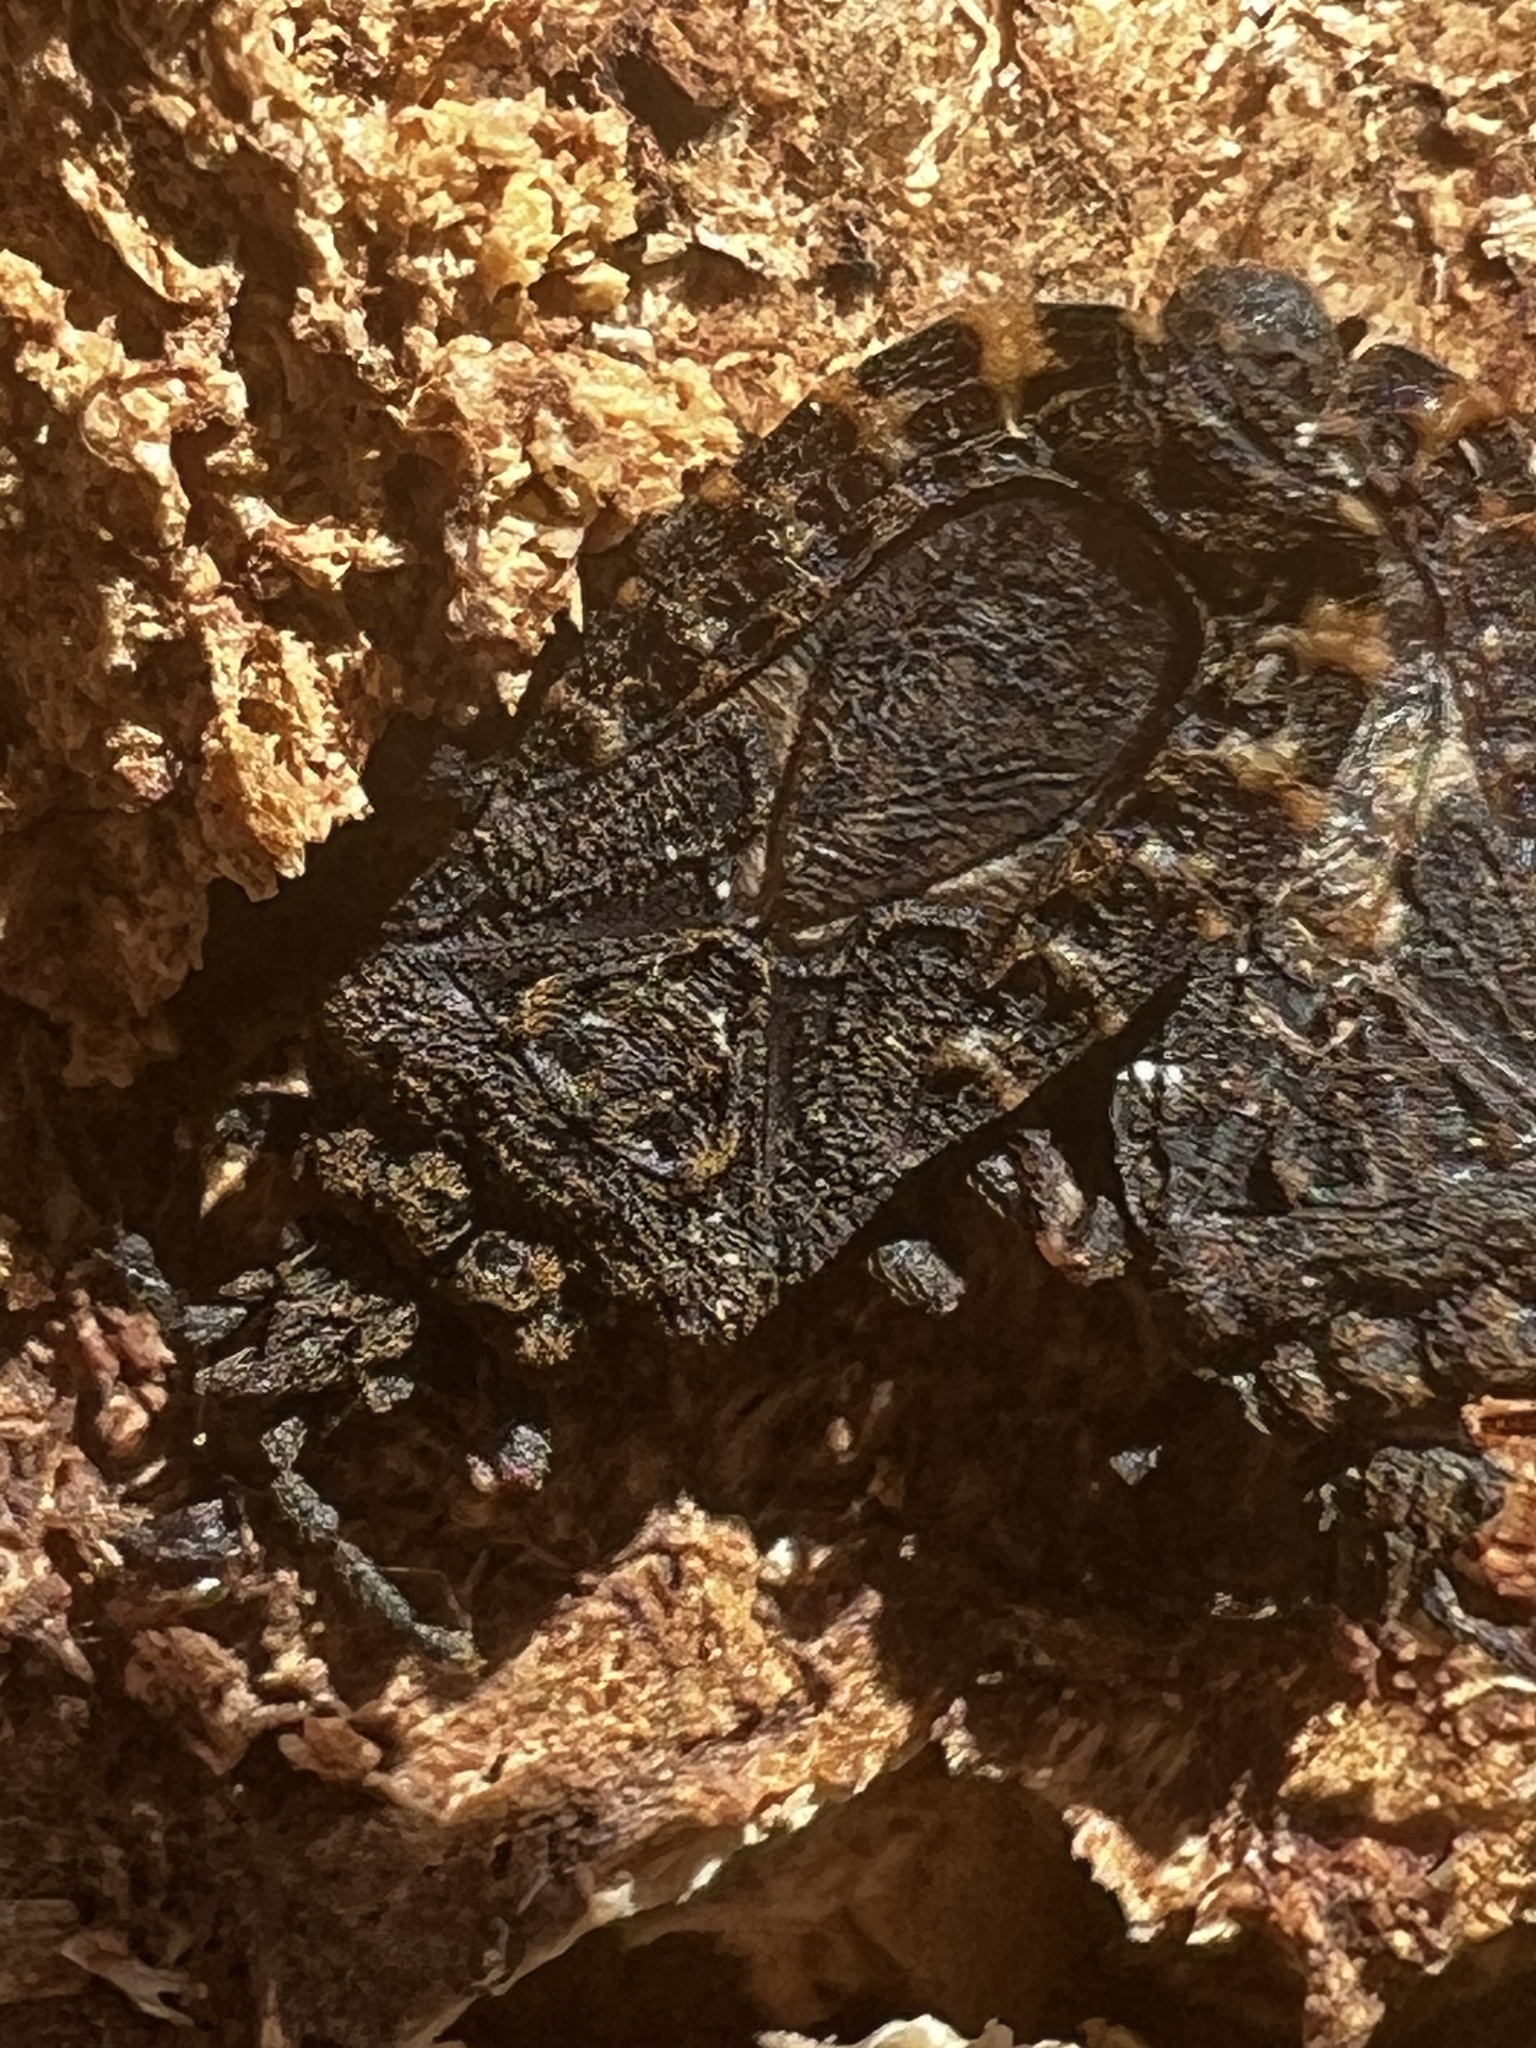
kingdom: Animalia
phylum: Arthropoda
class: Insecta
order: Hemiptera
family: Aradidae
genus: Mezira
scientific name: Mezira
